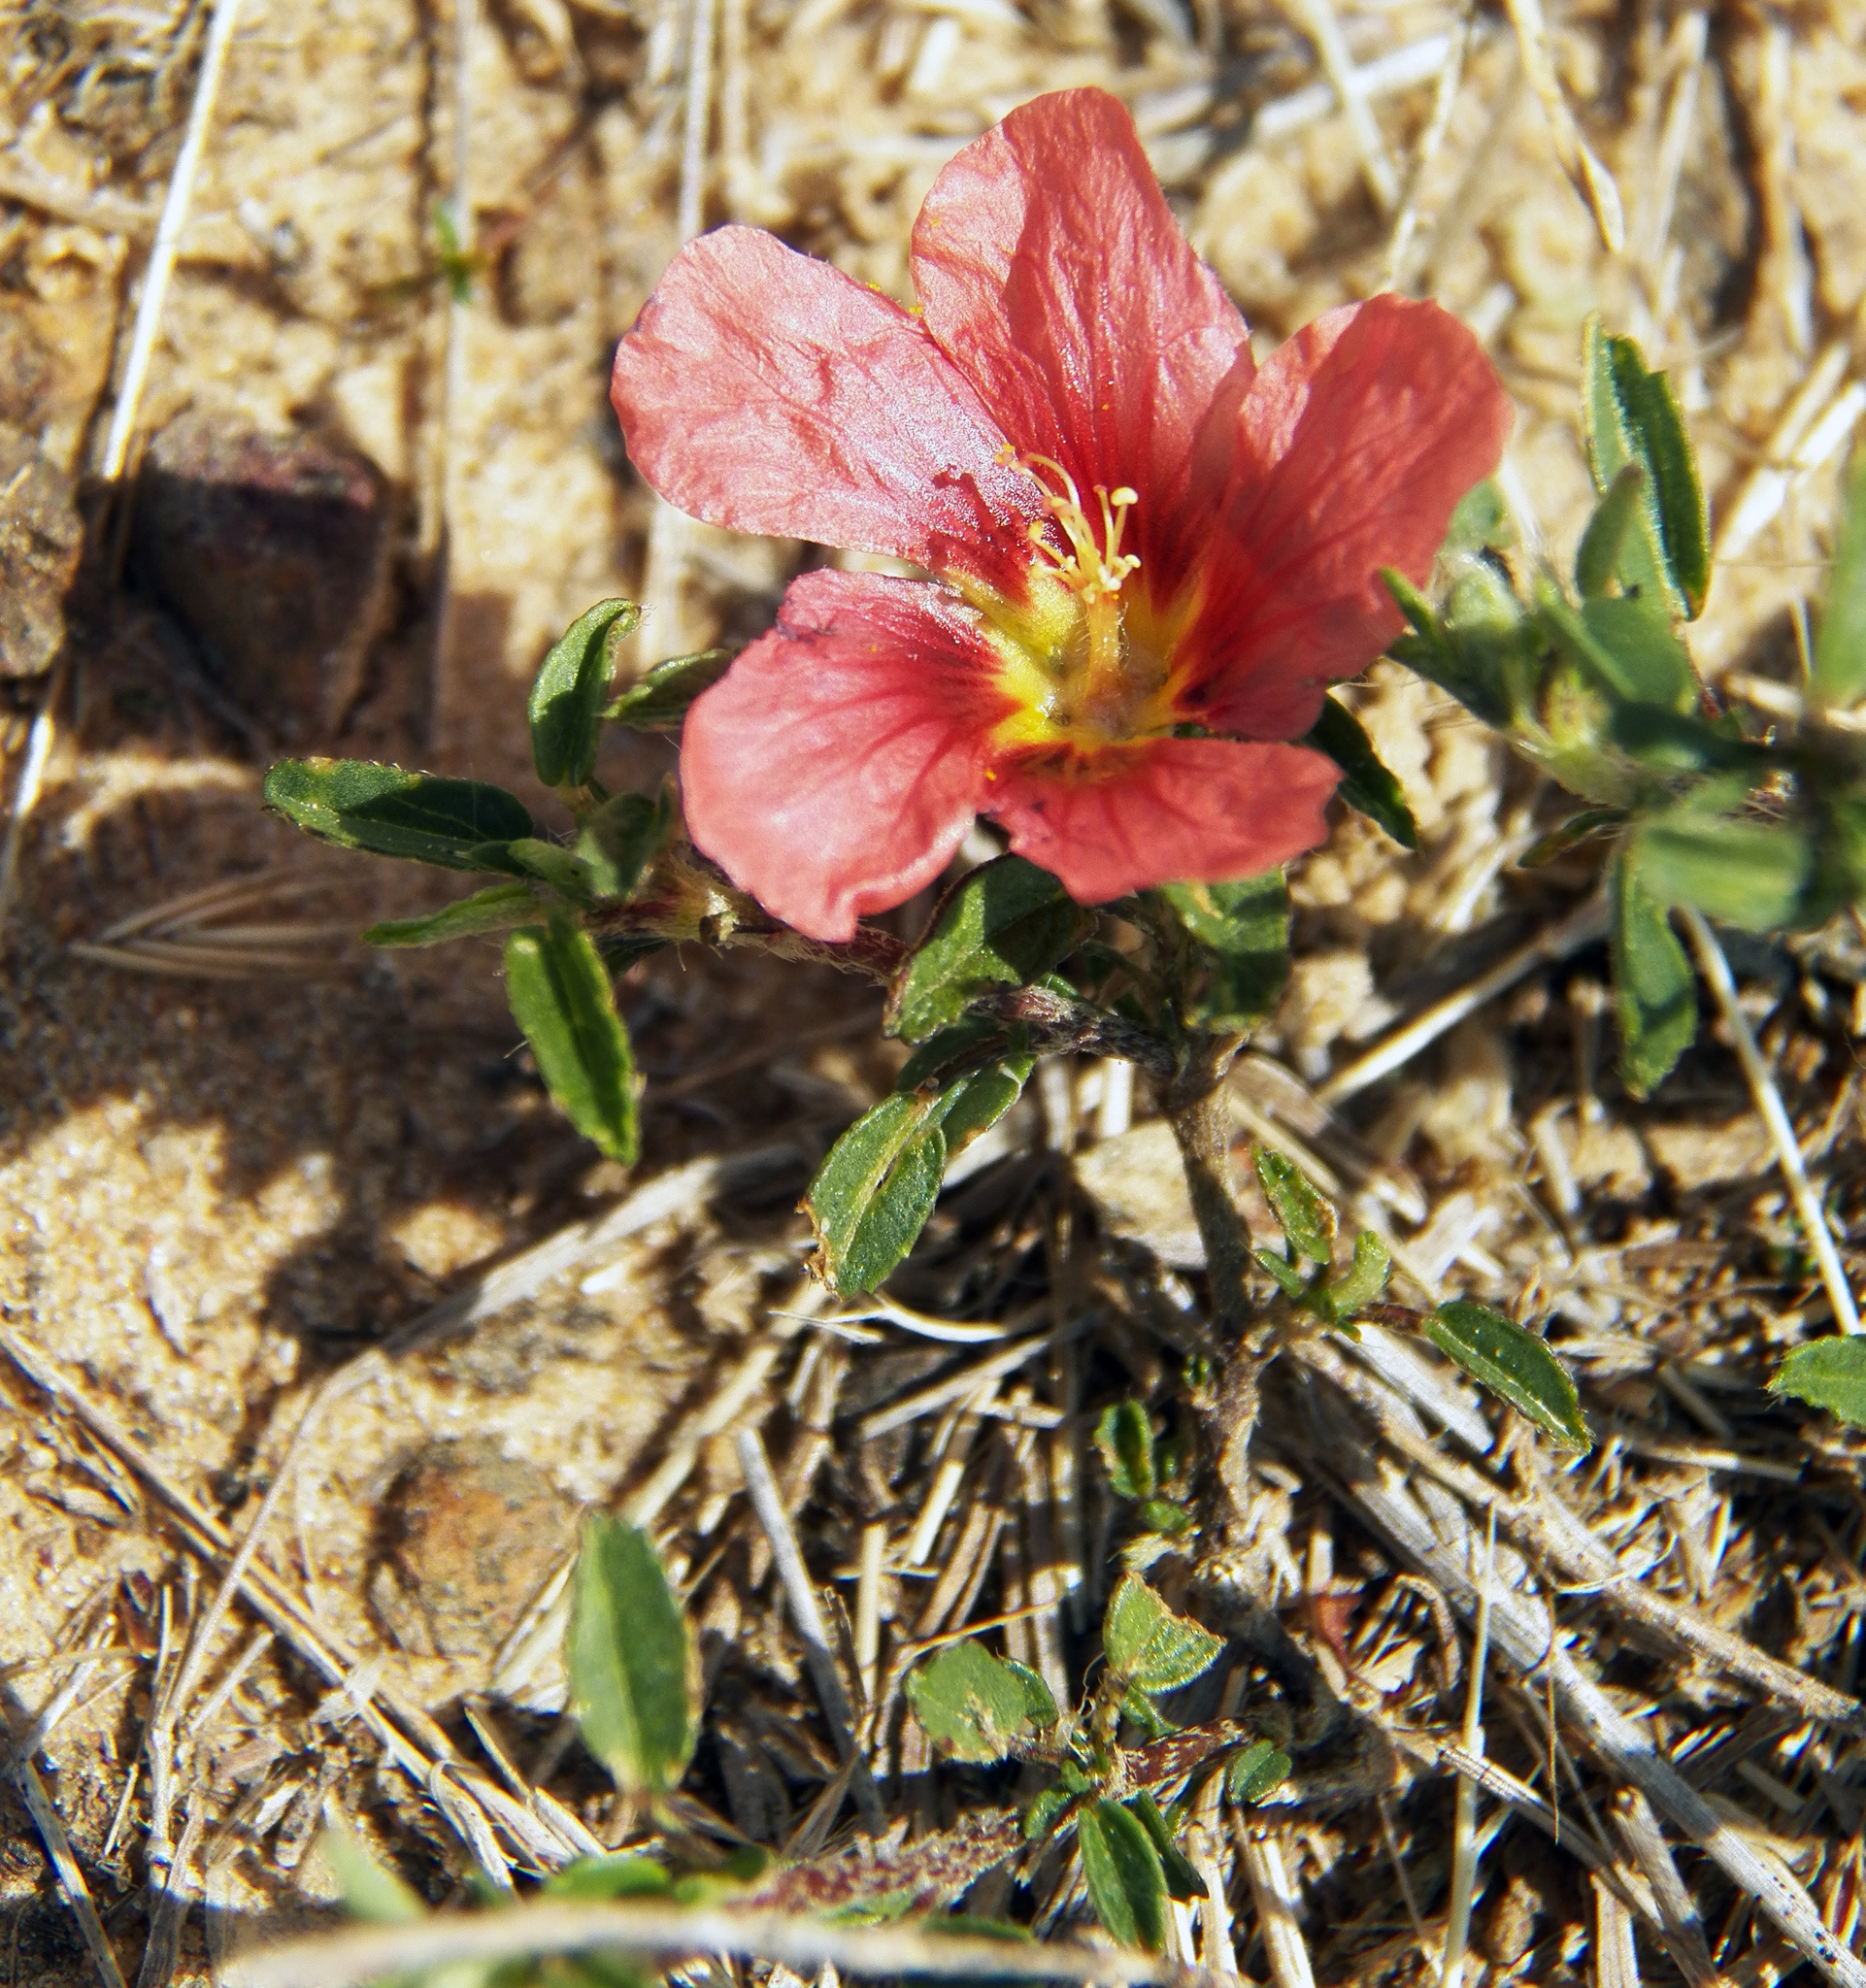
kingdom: Plantae
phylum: Tracheophyta
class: Magnoliopsida
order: Malvales
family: Malvaceae
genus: Sida
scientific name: Sida ciliaris
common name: Bracted fanpetals
